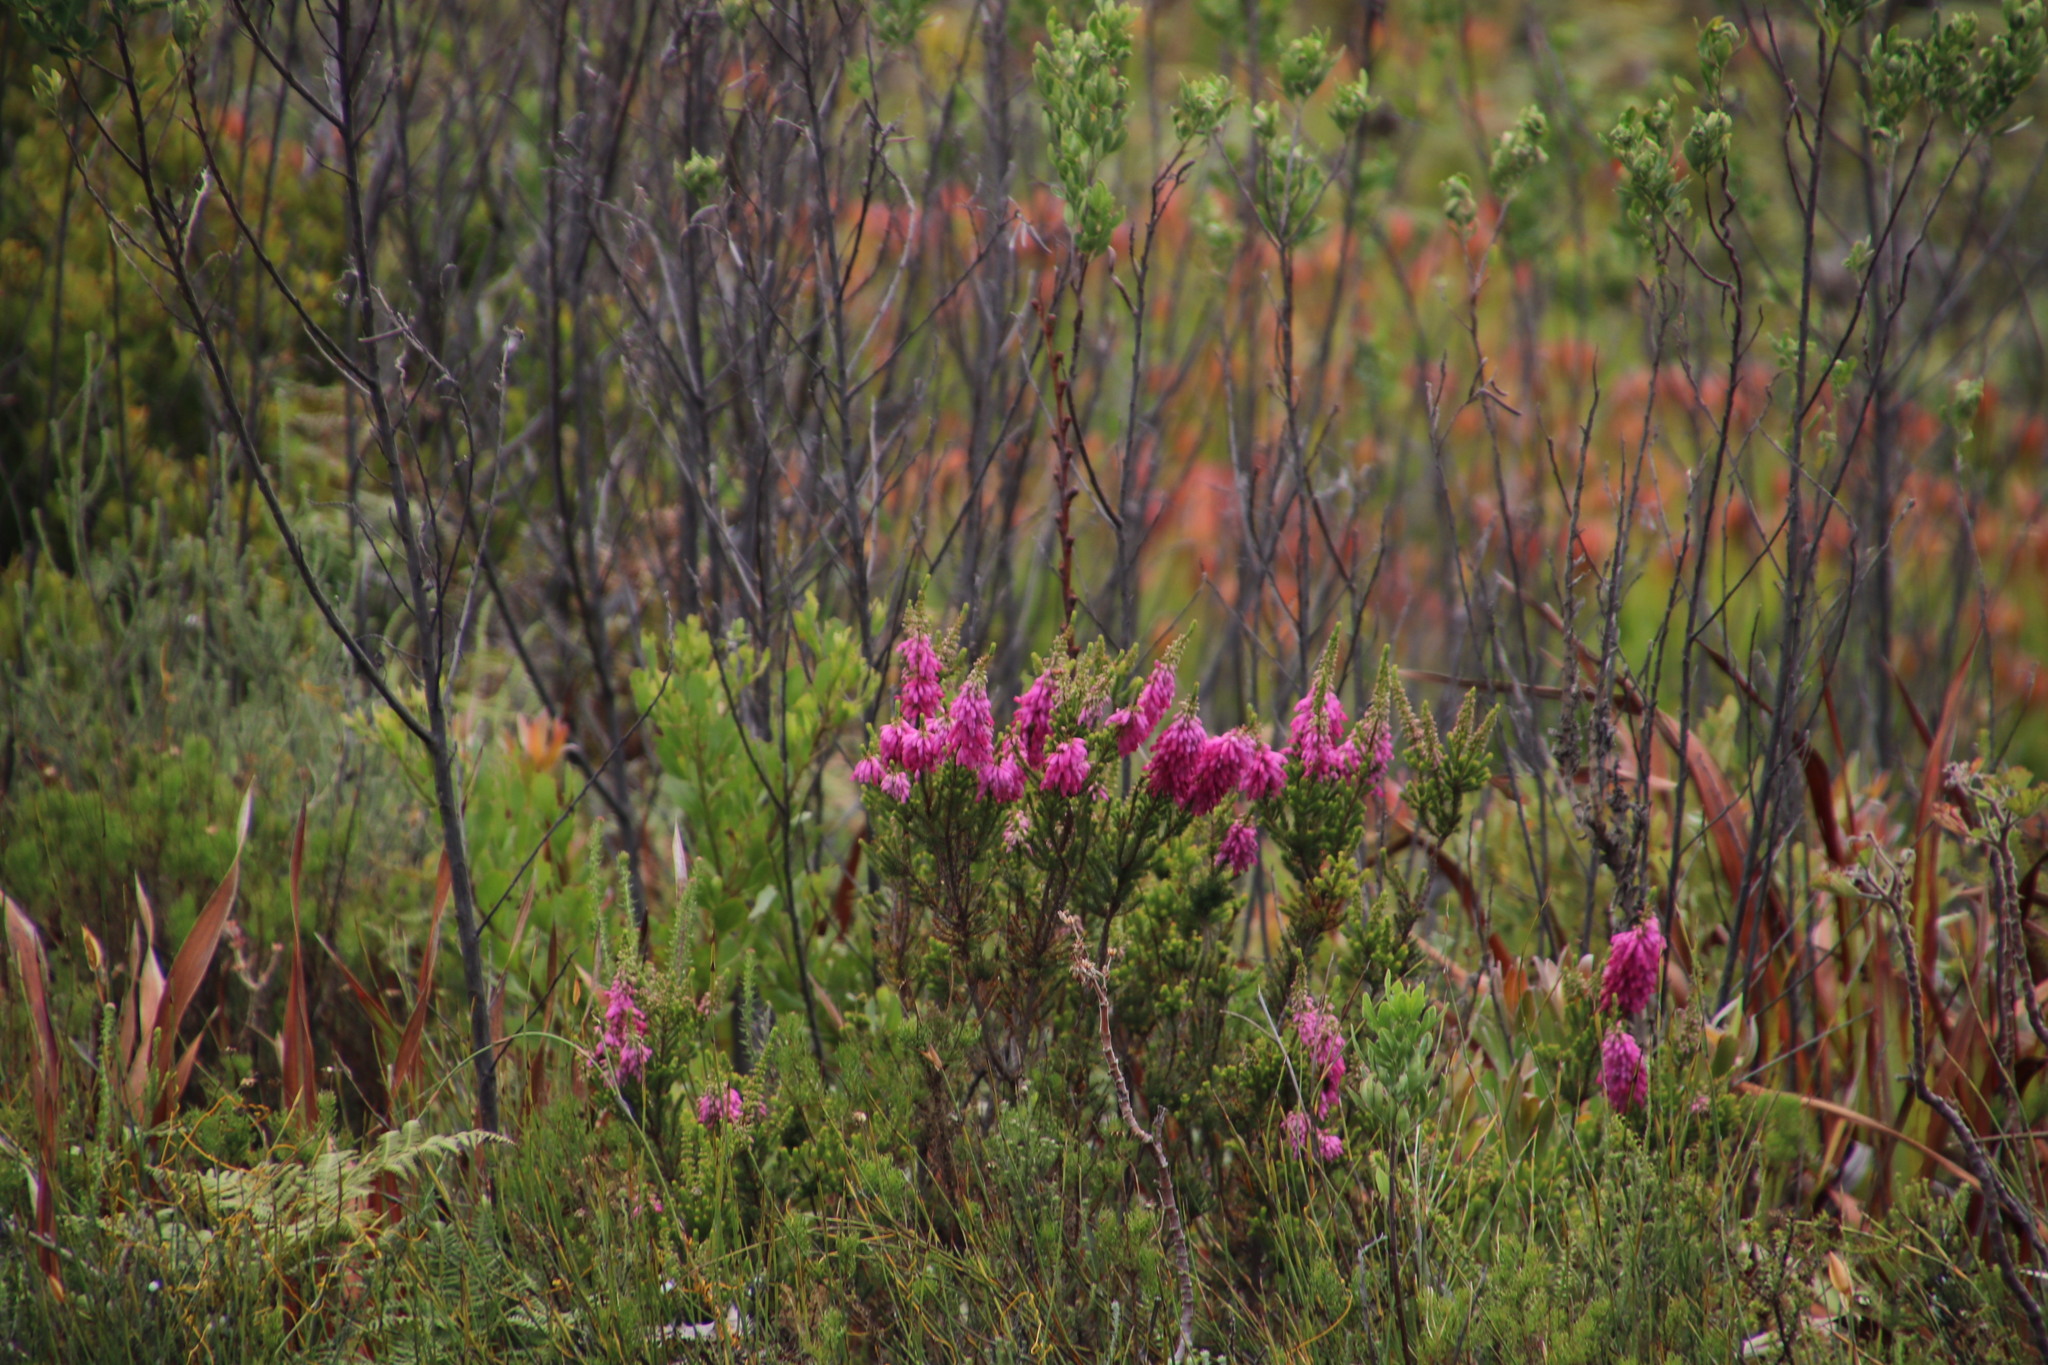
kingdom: Plantae
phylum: Tracheophyta
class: Magnoliopsida
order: Ericales
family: Ericaceae
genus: Erica
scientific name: Erica mammosa
